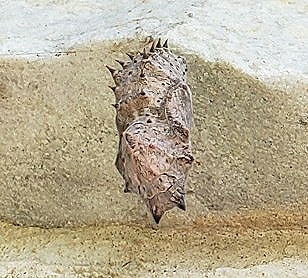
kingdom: Animalia
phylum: Arthropoda
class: Insecta
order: Lepidoptera
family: Nymphalidae
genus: Nymphalis
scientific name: Nymphalis antiopa
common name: Camberwell beauty
